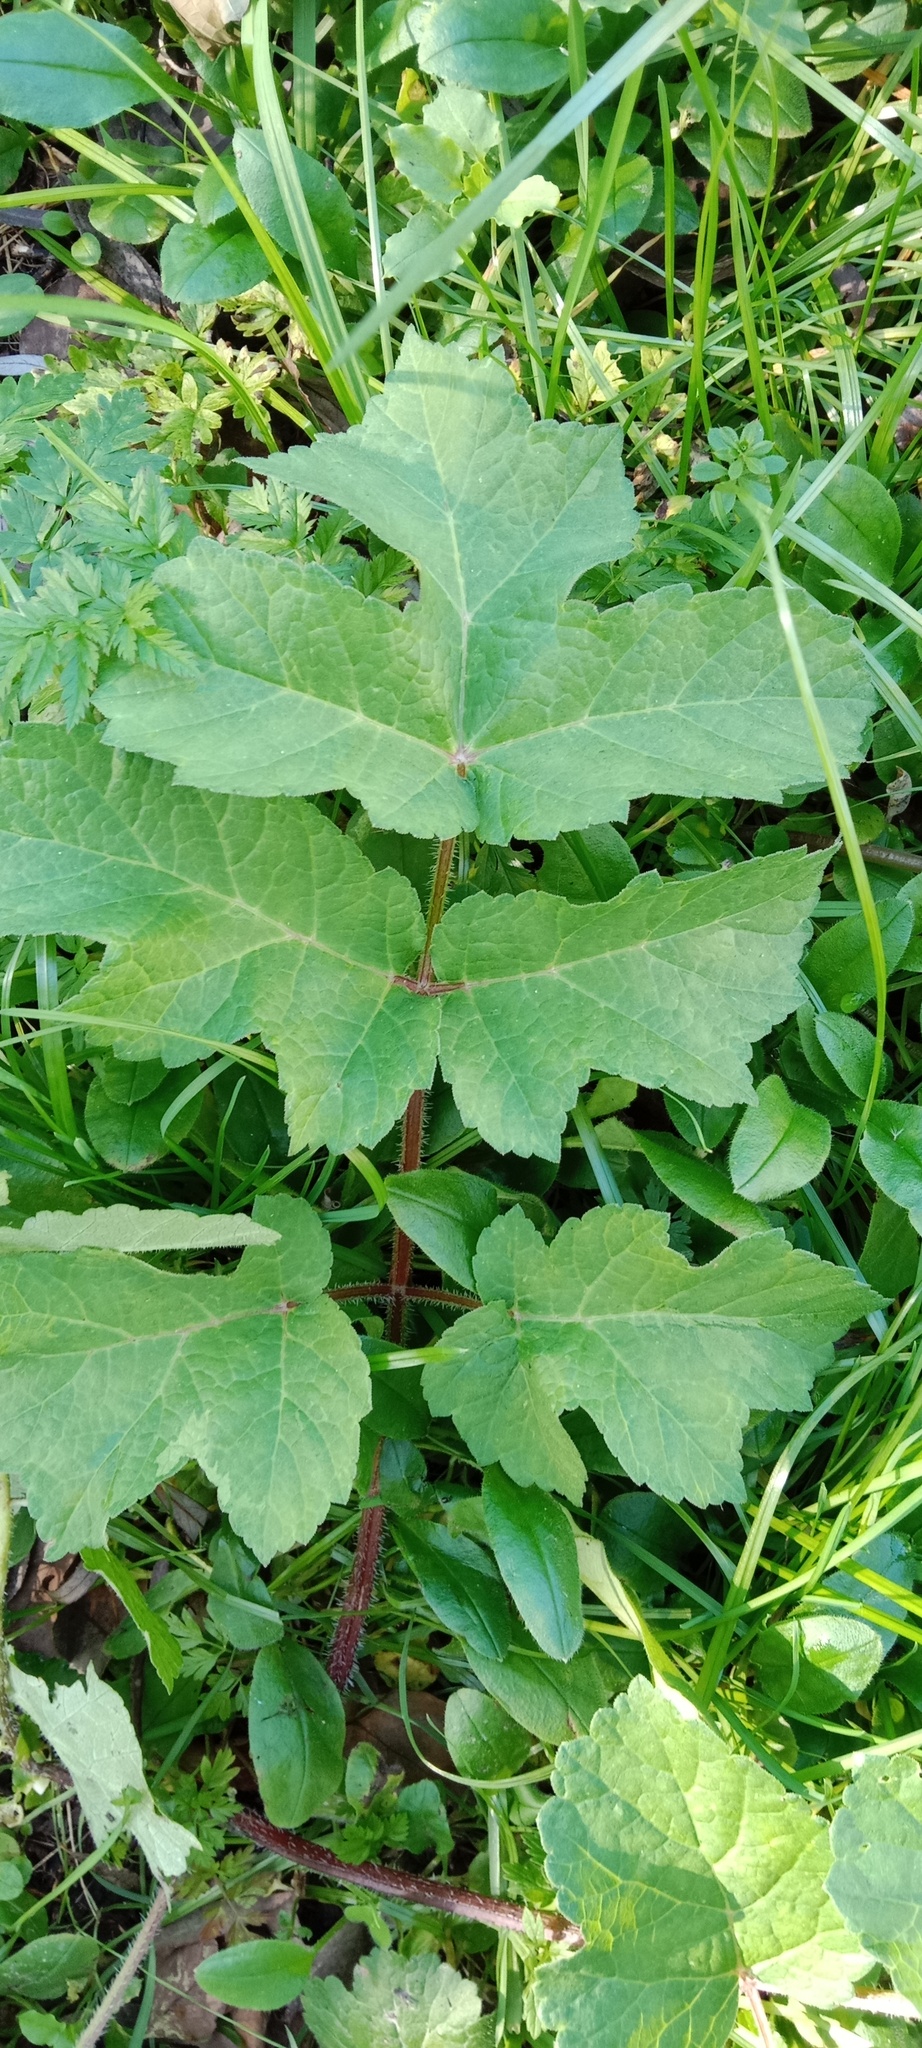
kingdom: Plantae
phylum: Tracheophyta
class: Magnoliopsida
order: Apiales
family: Apiaceae
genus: Heracleum
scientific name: Heracleum sphondylium
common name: Hogweed
